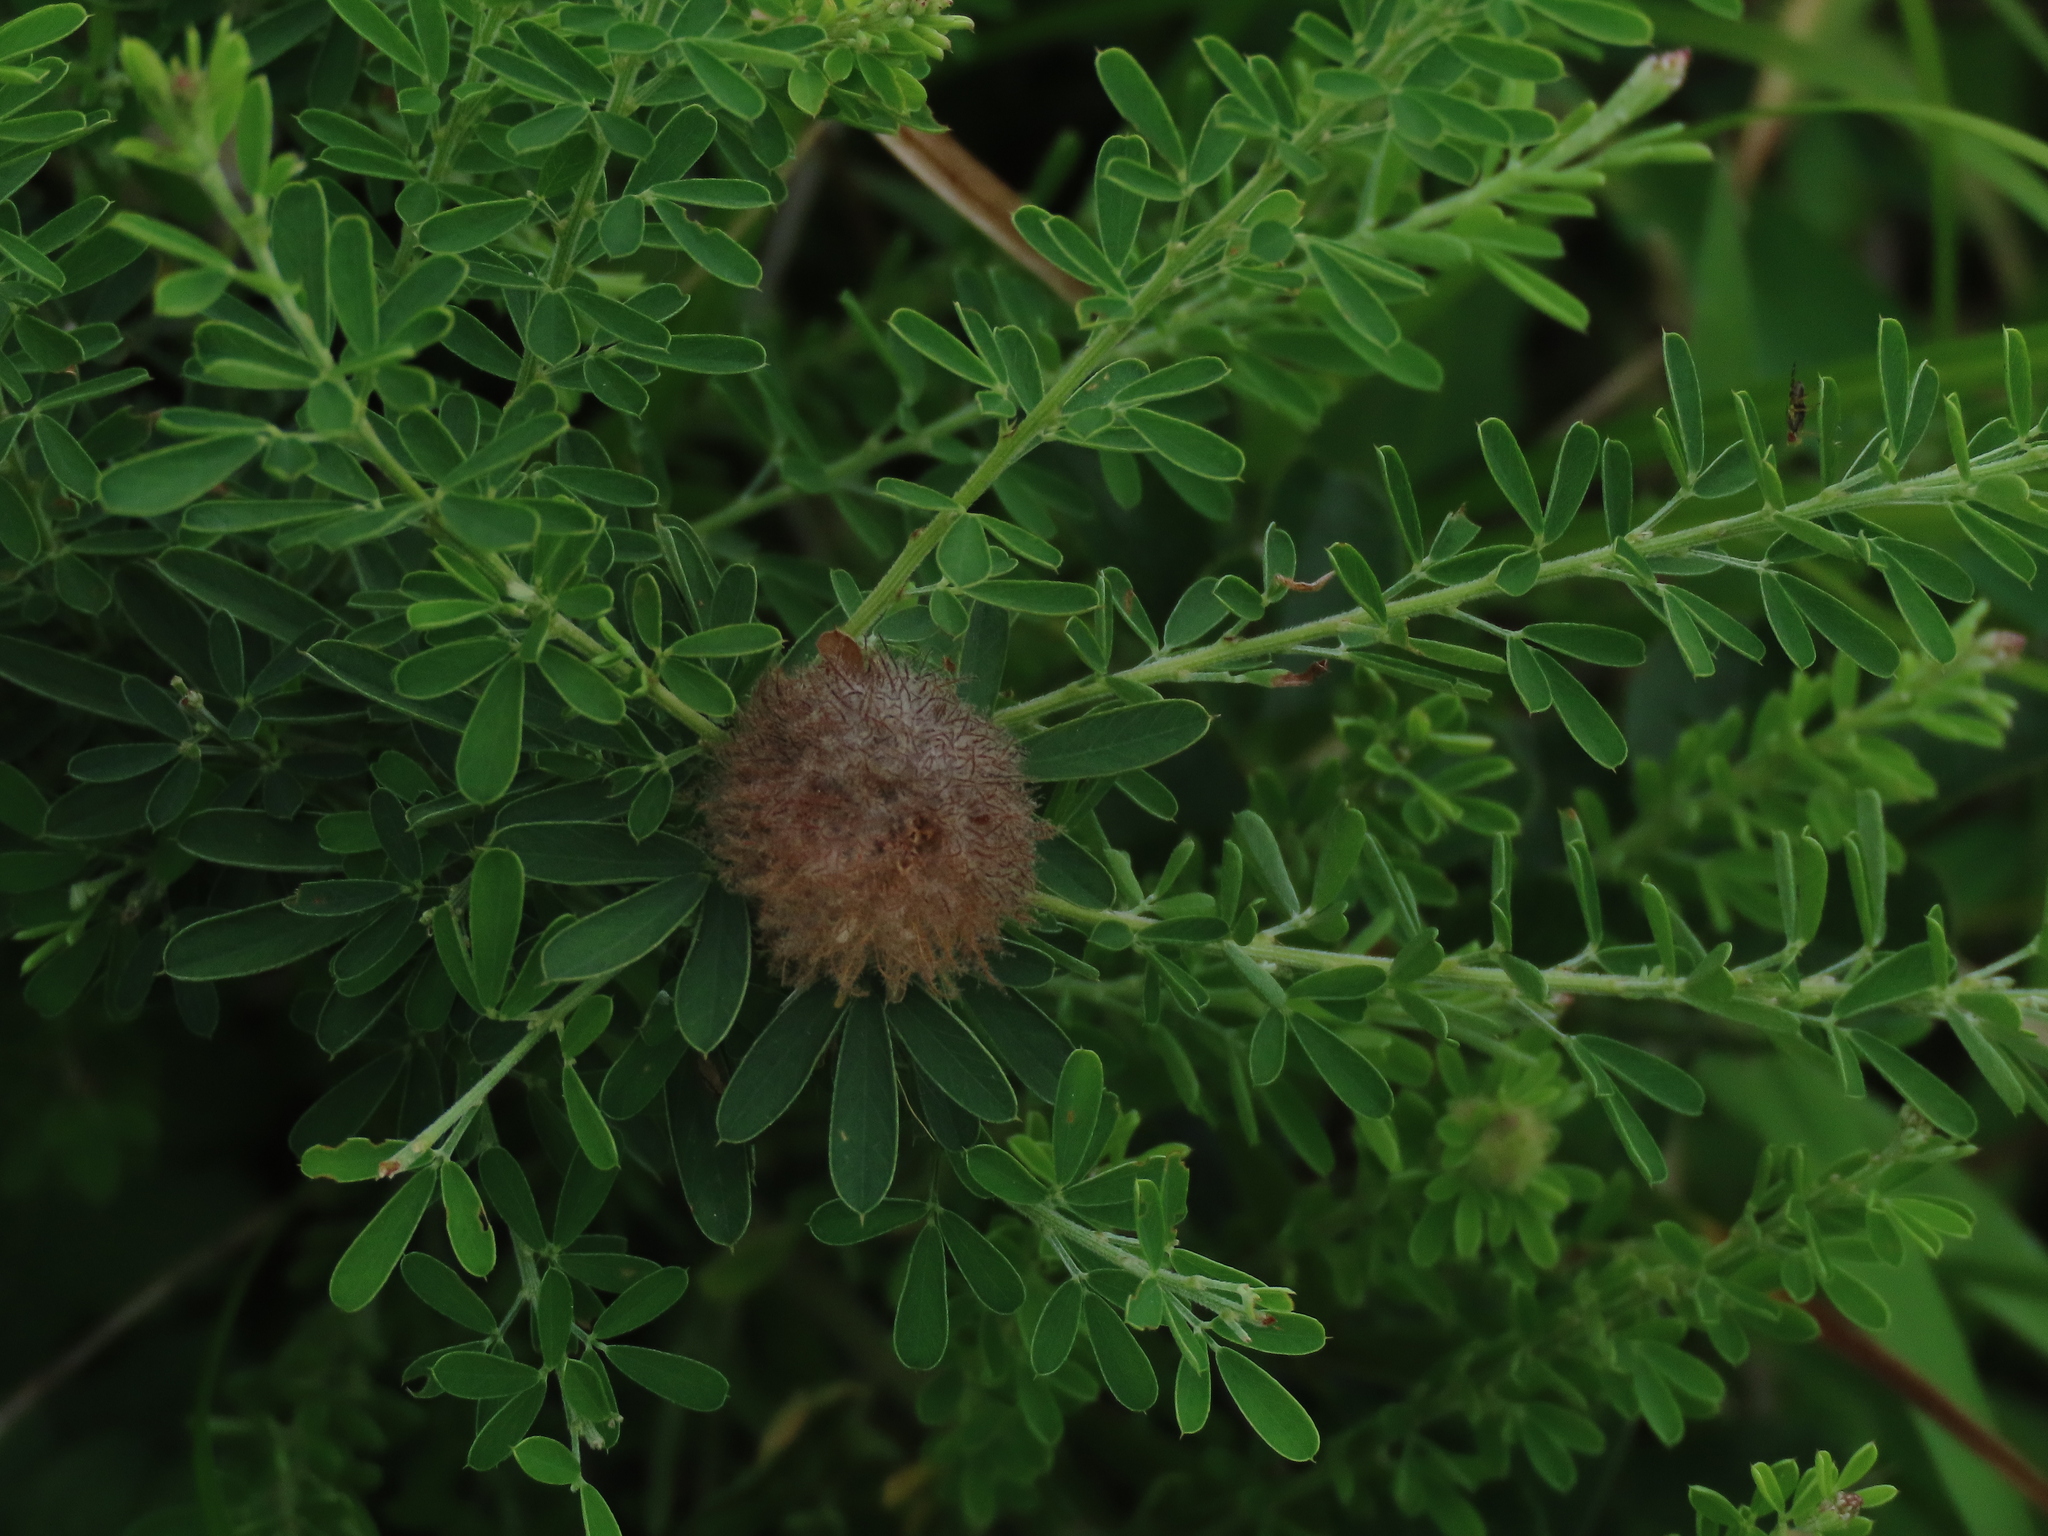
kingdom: Plantae
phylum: Tracheophyta
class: Magnoliopsida
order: Fabales
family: Fabaceae
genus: Lespedeza
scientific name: Lespedeza cuneata
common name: Chinese bush-clover
